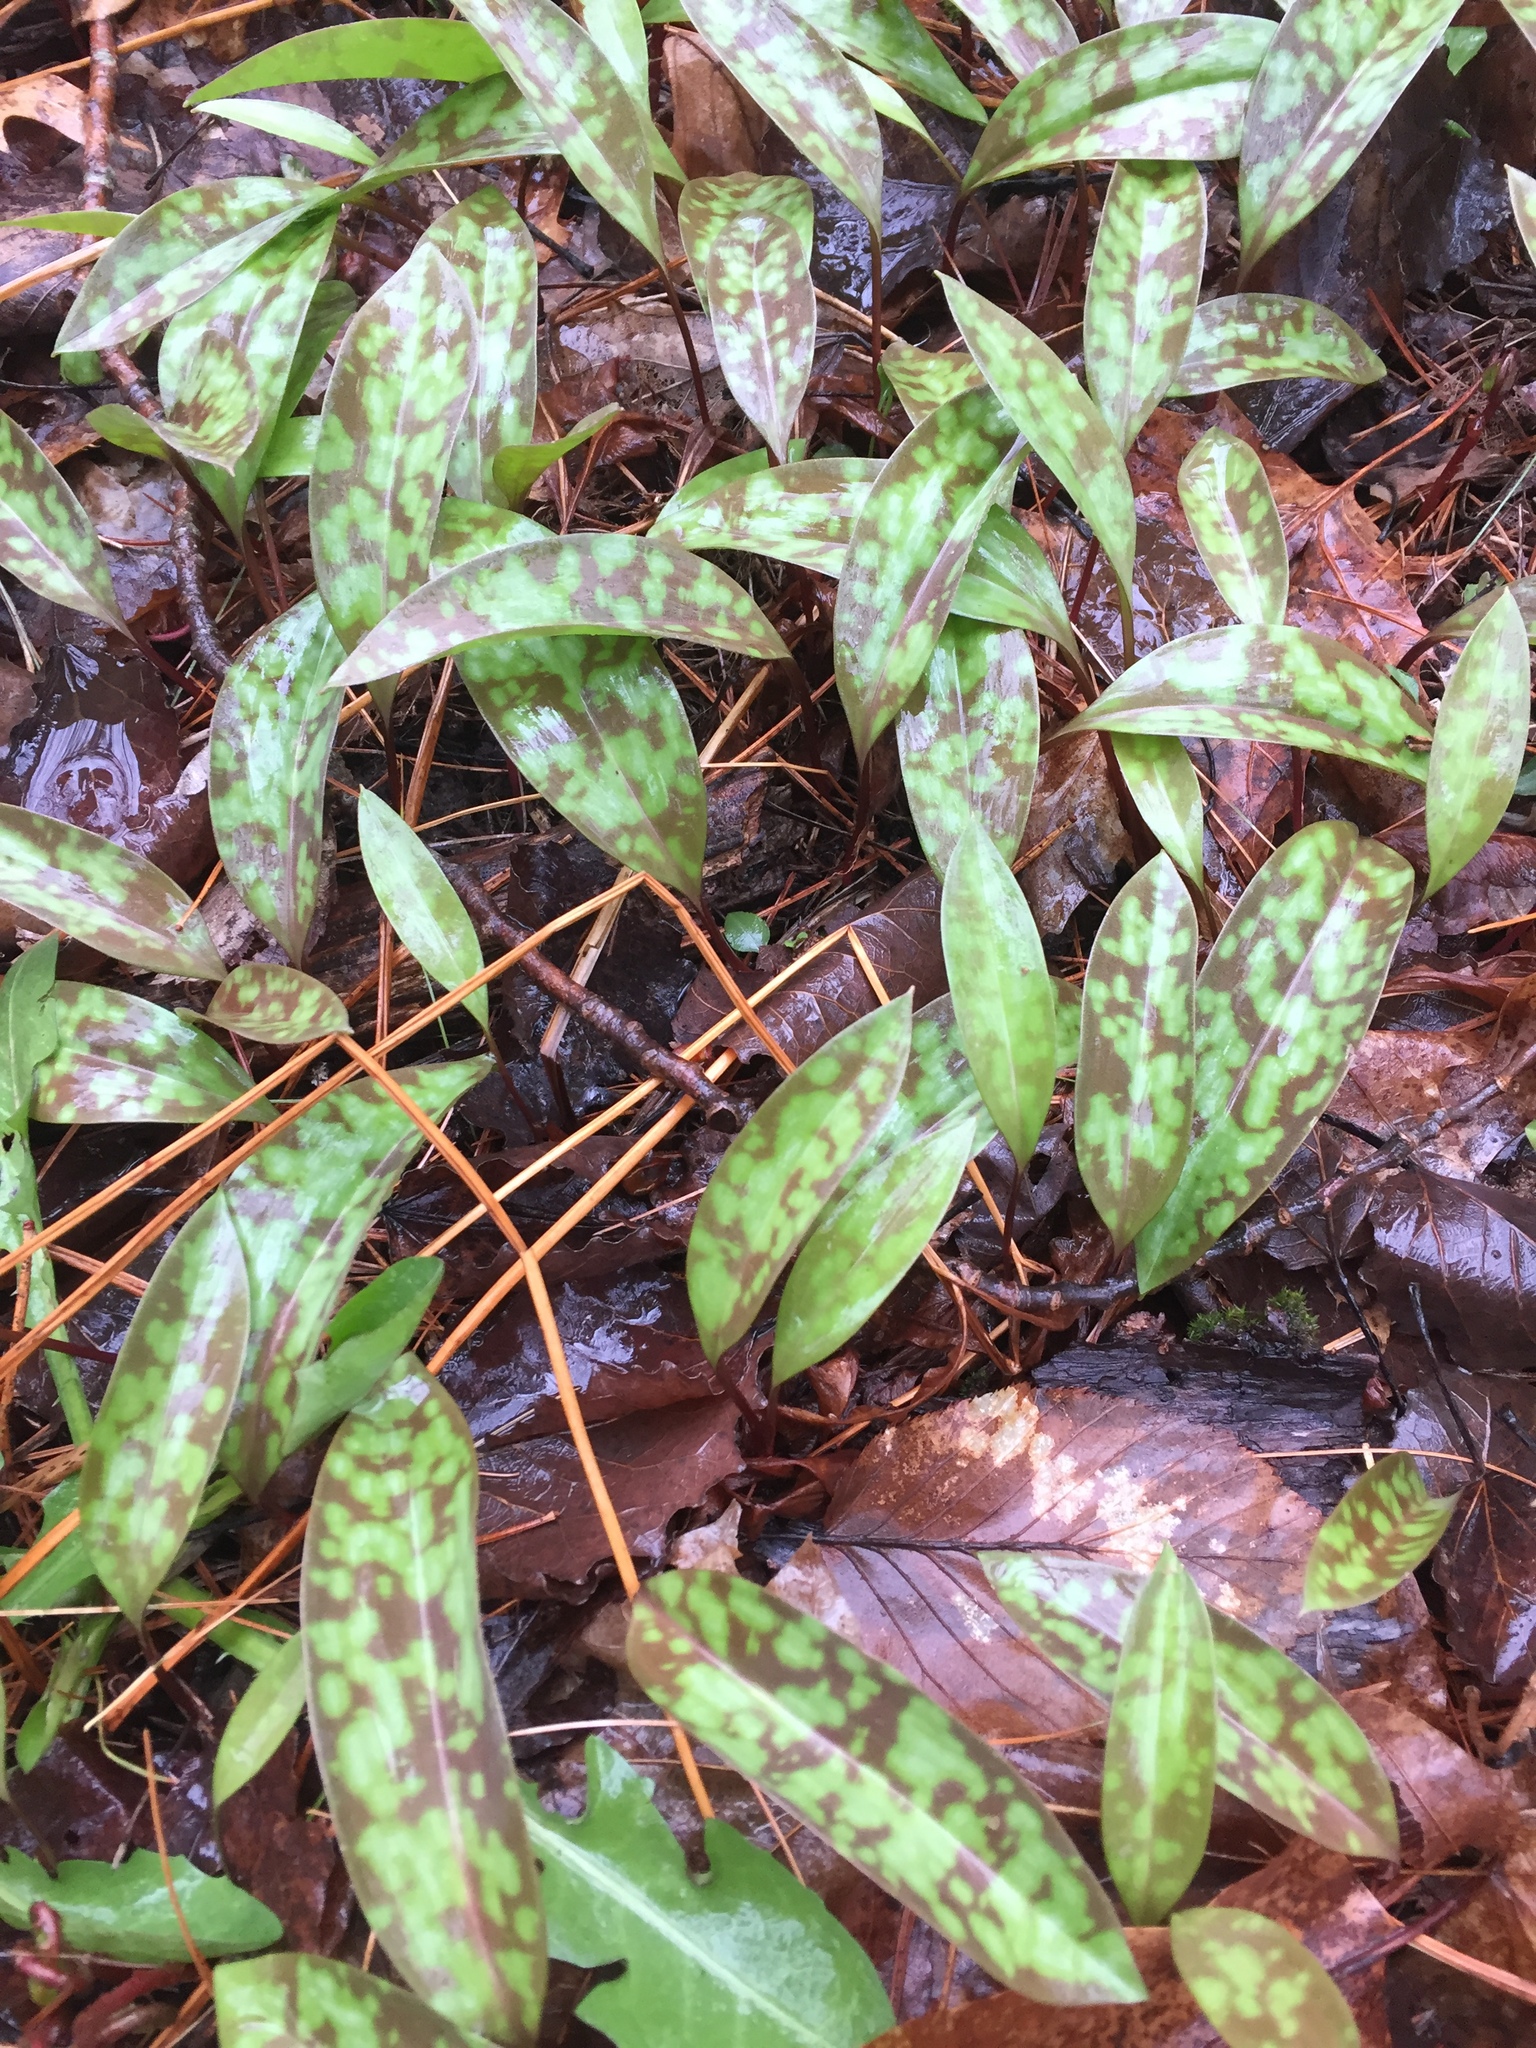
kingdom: Plantae
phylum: Tracheophyta
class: Liliopsida
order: Liliales
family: Liliaceae
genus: Erythronium
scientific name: Erythronium americanum
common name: Yellow adder's-tongue
